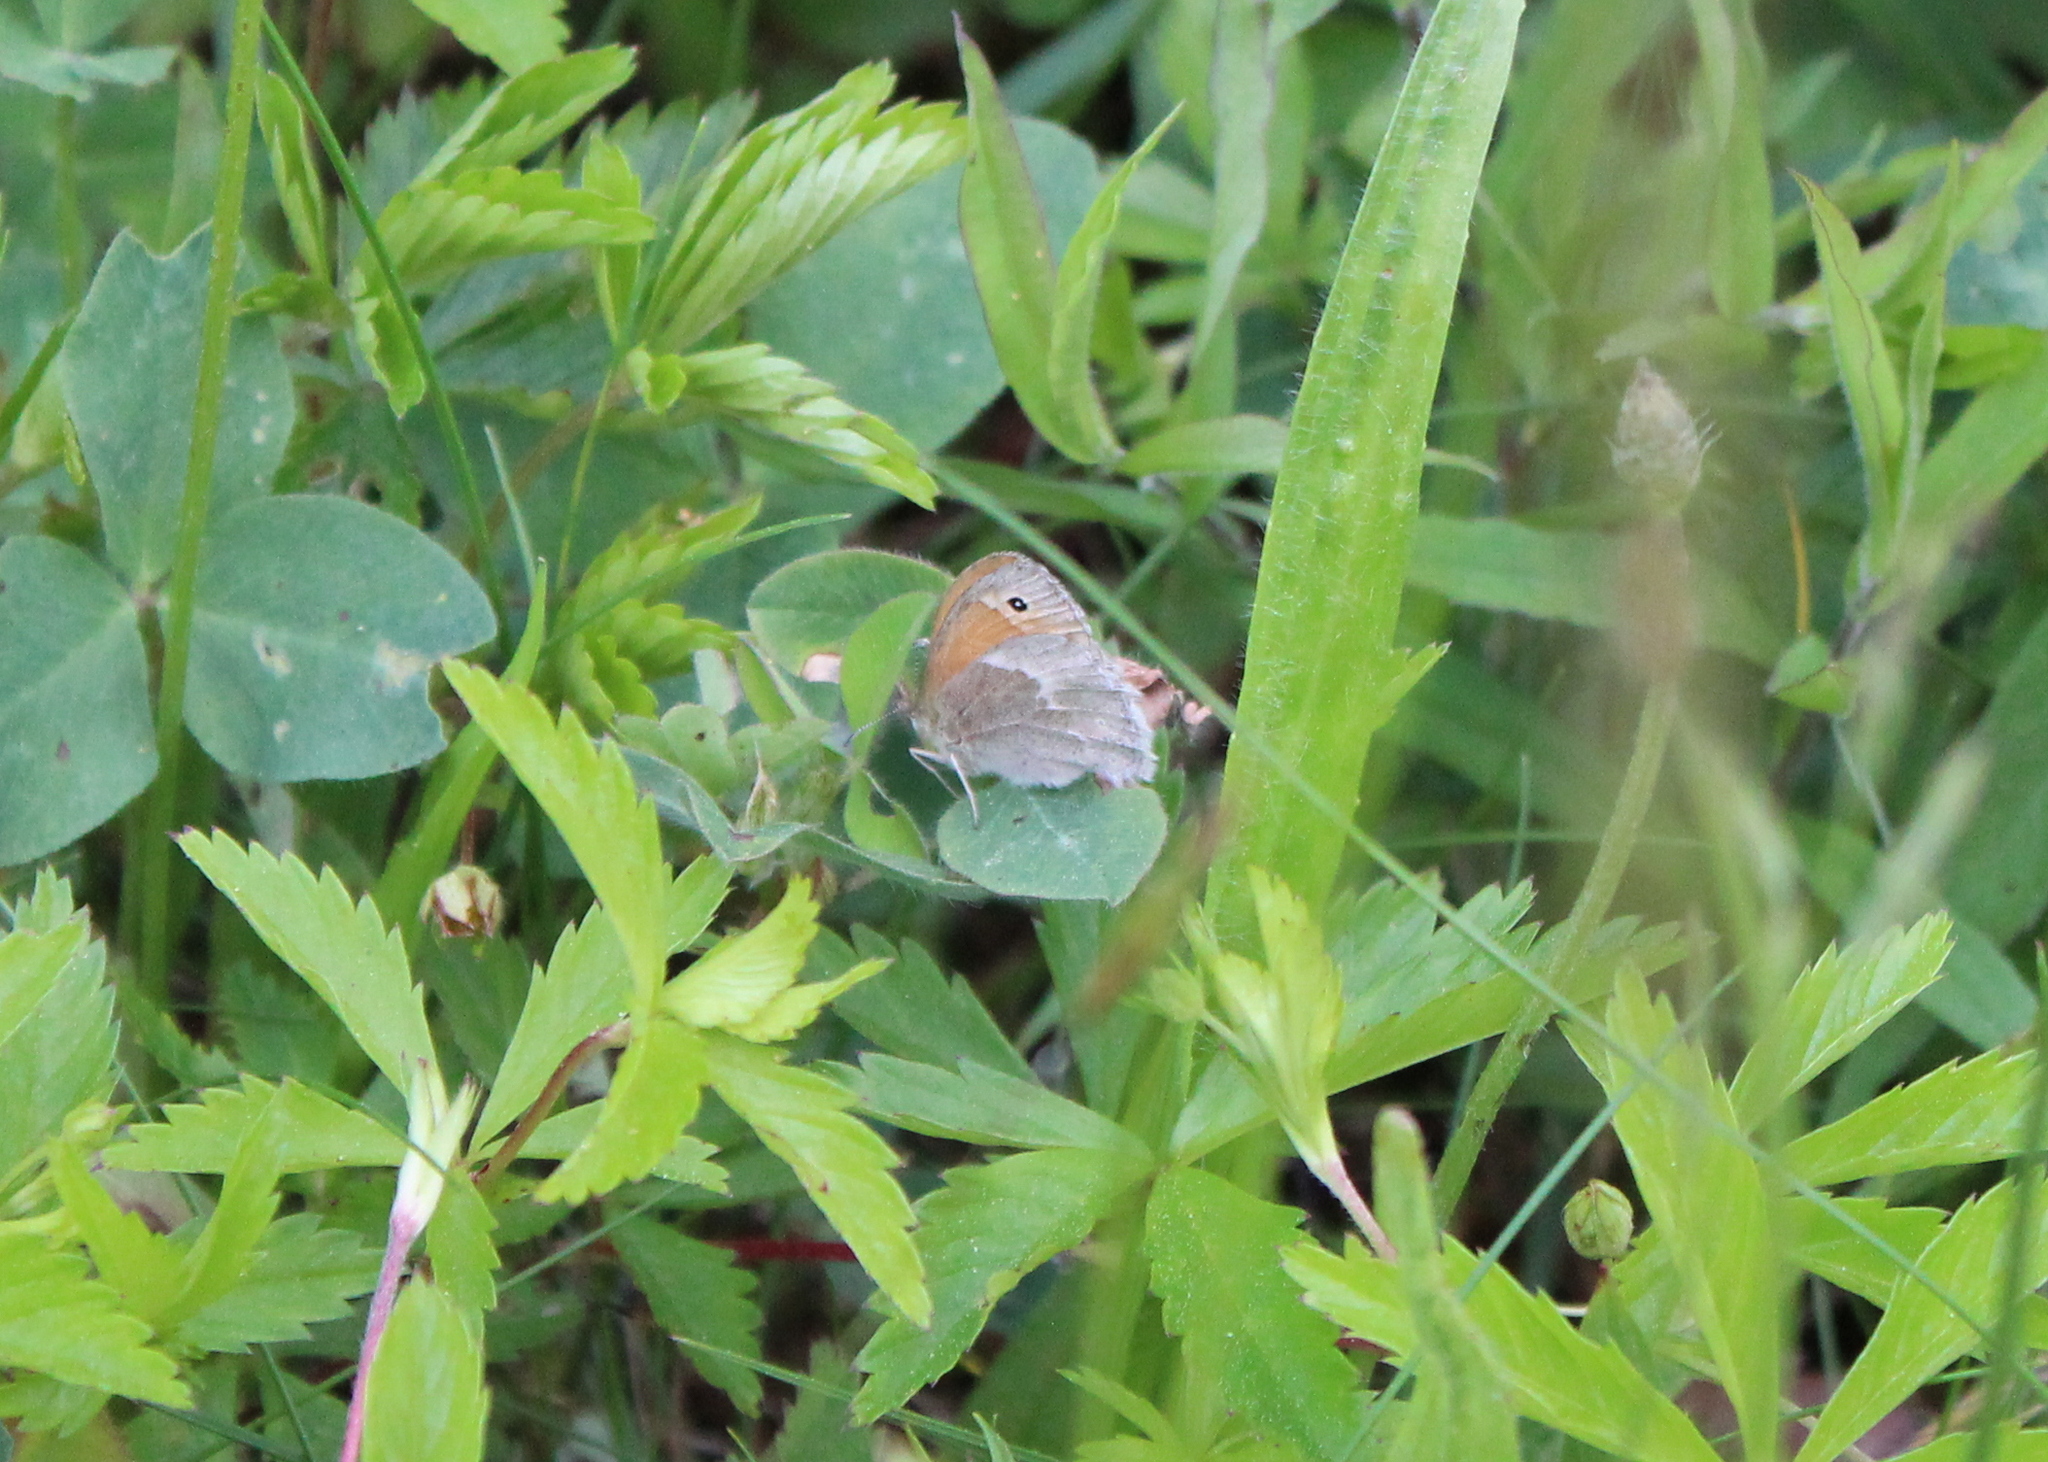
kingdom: Animalia
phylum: Arthropoda
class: Insecta
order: Lepidoptera
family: Nymphalidae
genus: Coenonympha
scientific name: Coenonympha california
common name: Common ringlet
